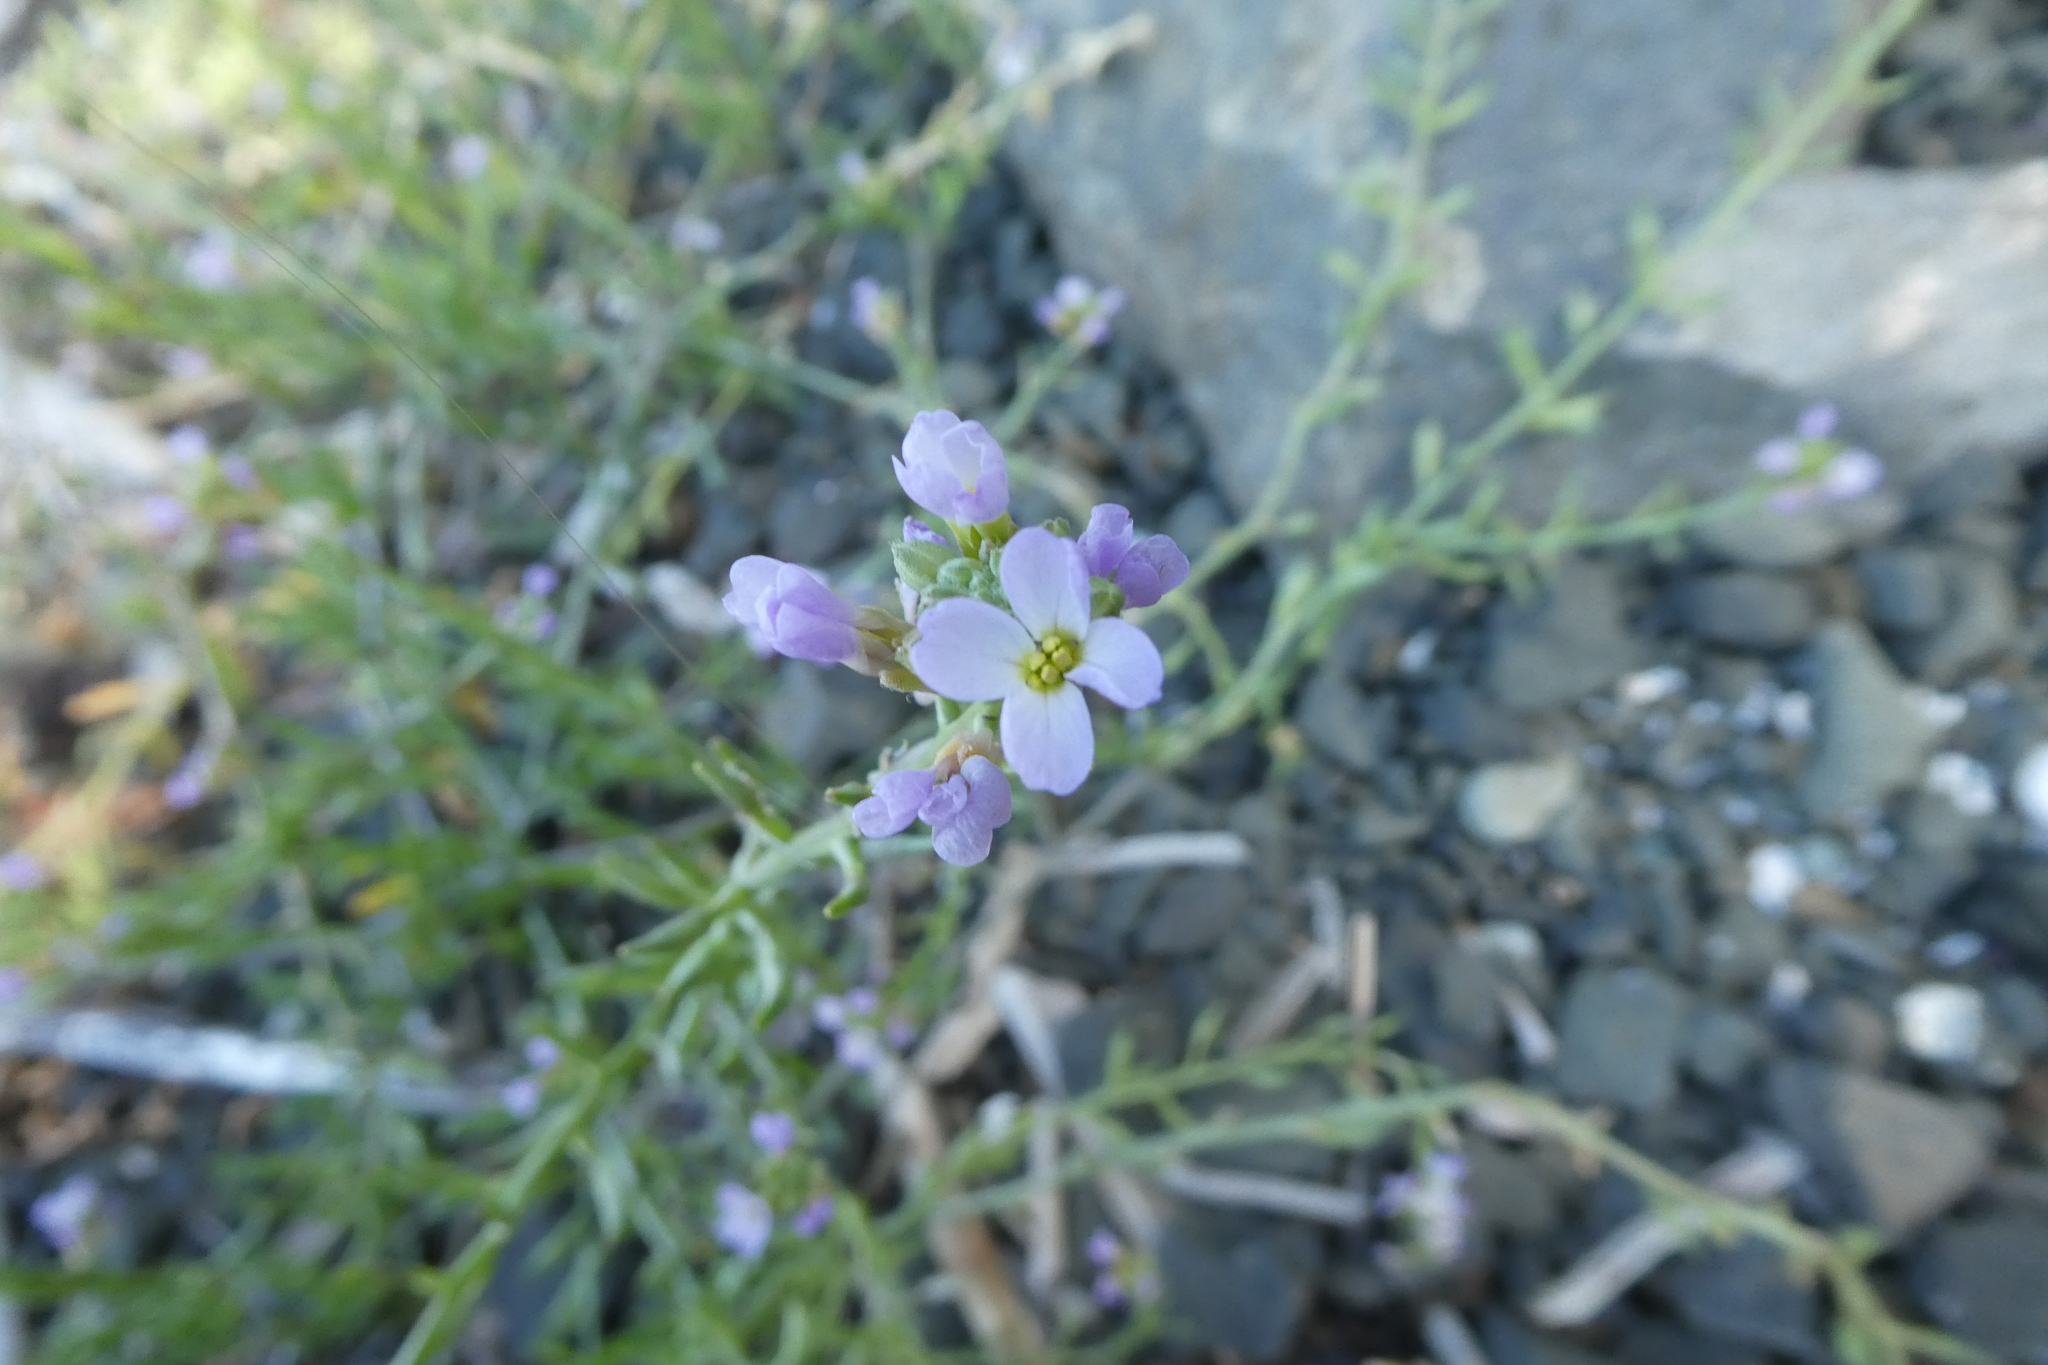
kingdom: Plantae
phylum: Tracheophyta
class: Magnoliopsida
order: Brassicales
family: Brassicaceae
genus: Cakile
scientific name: Cakile maritima
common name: Sea rocket
